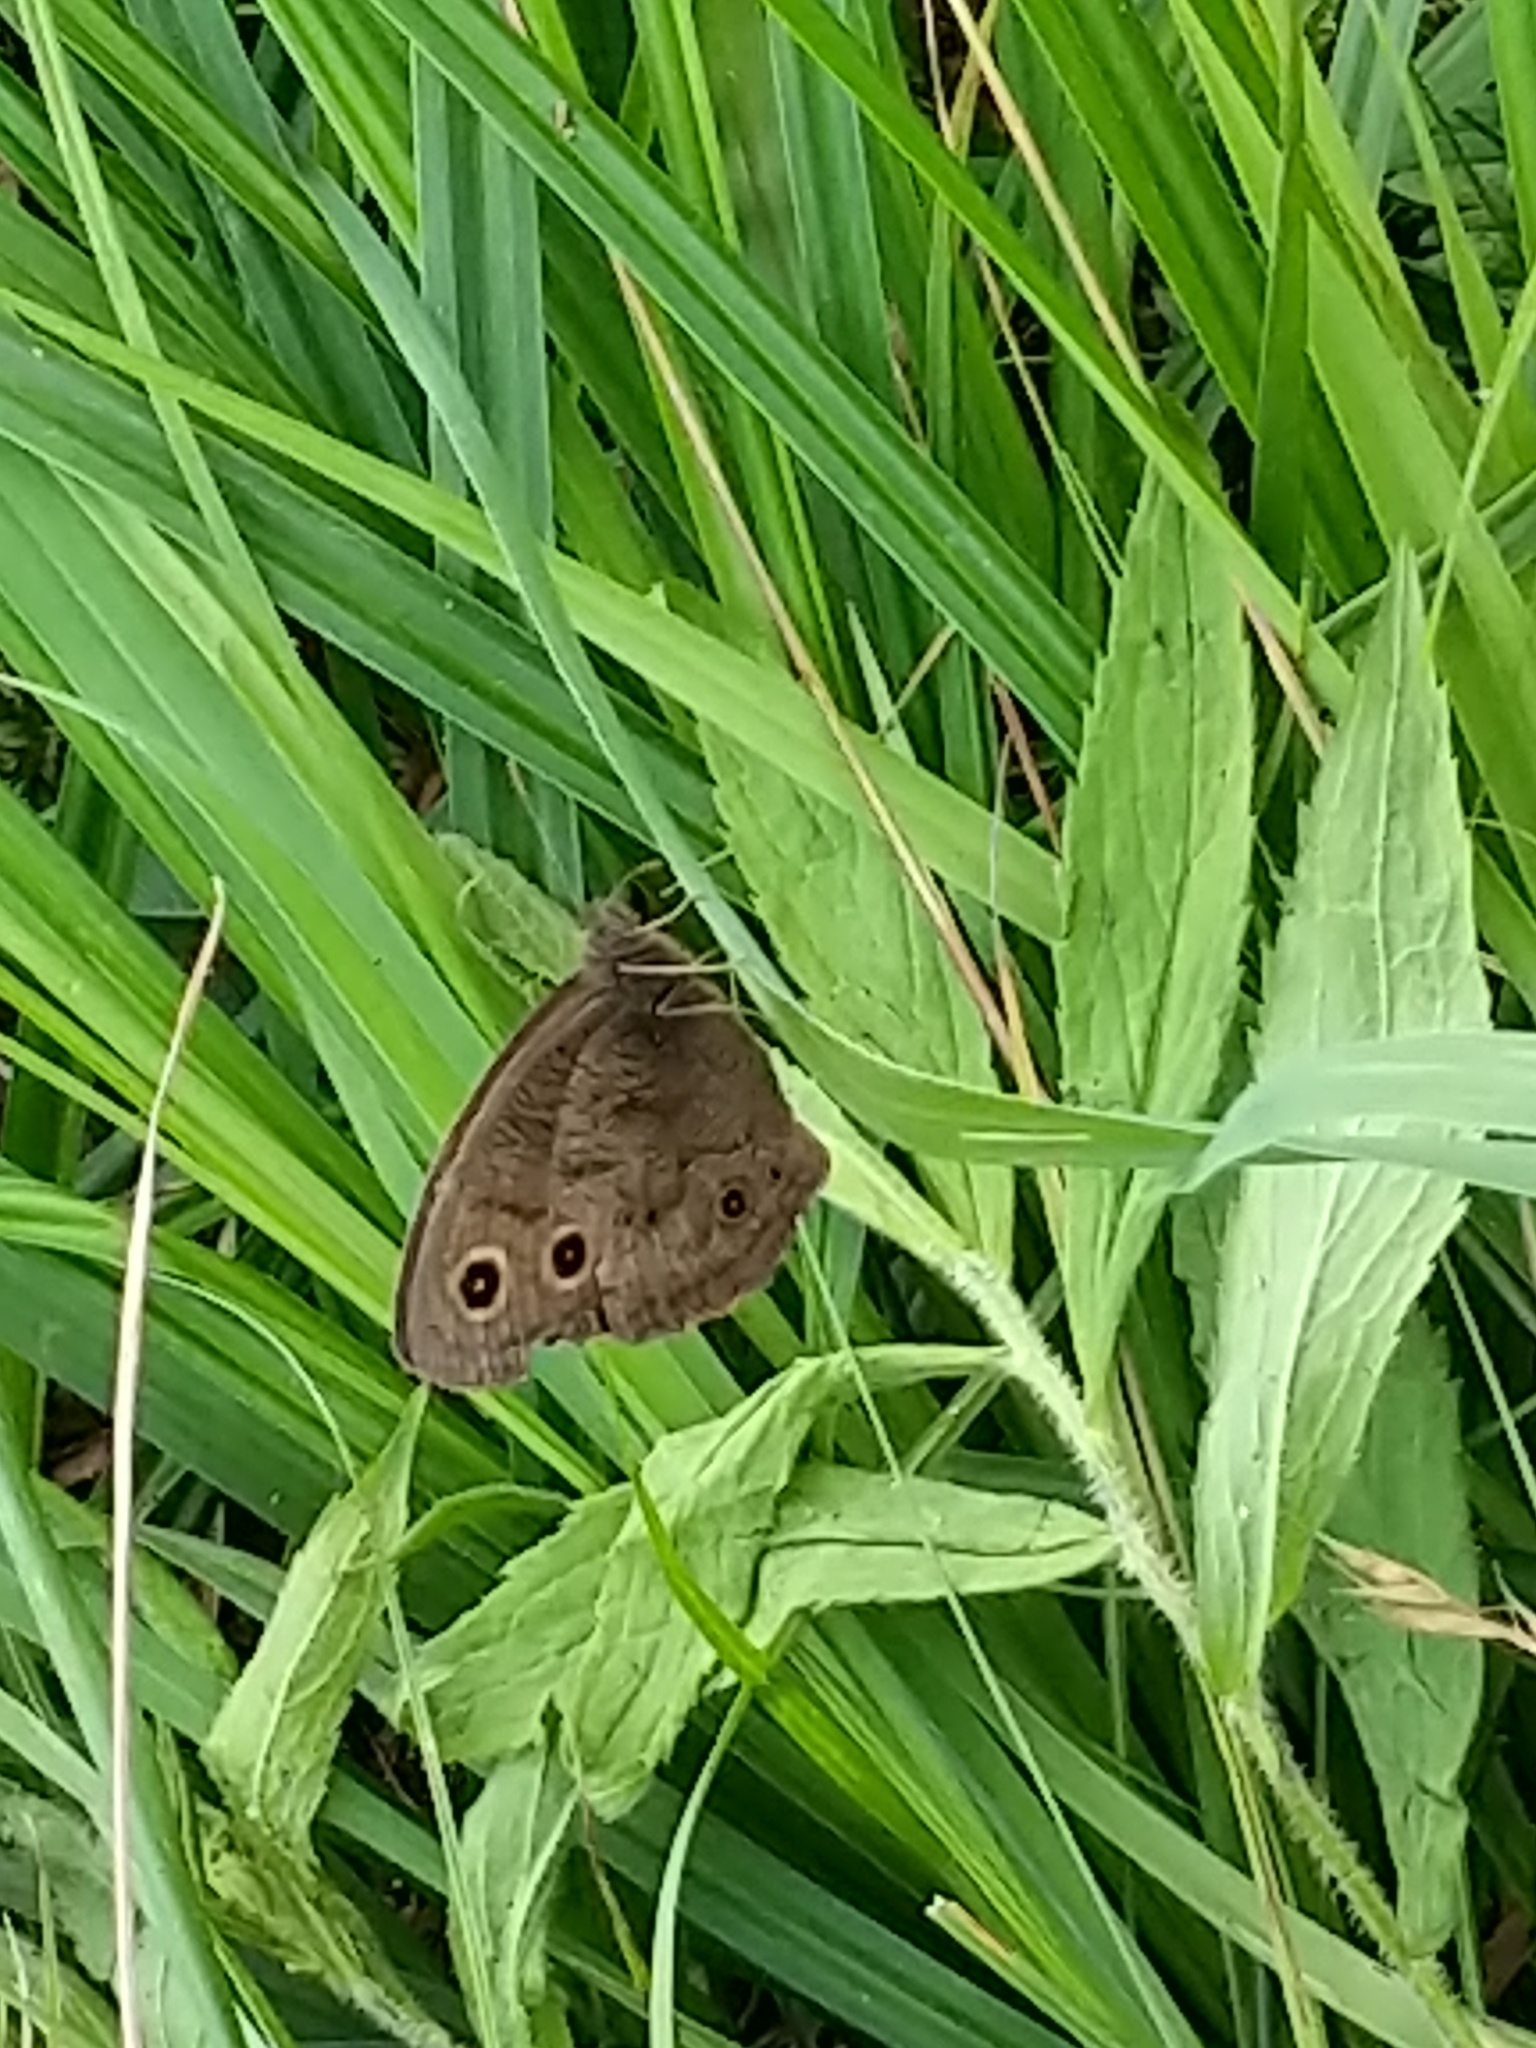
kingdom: Animalia
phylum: Arthropoda
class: Insecta
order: Lepidoptera
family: Nymphalidae
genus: Cercyonis
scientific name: Cercyonis pegala
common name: Common wood-nymph
